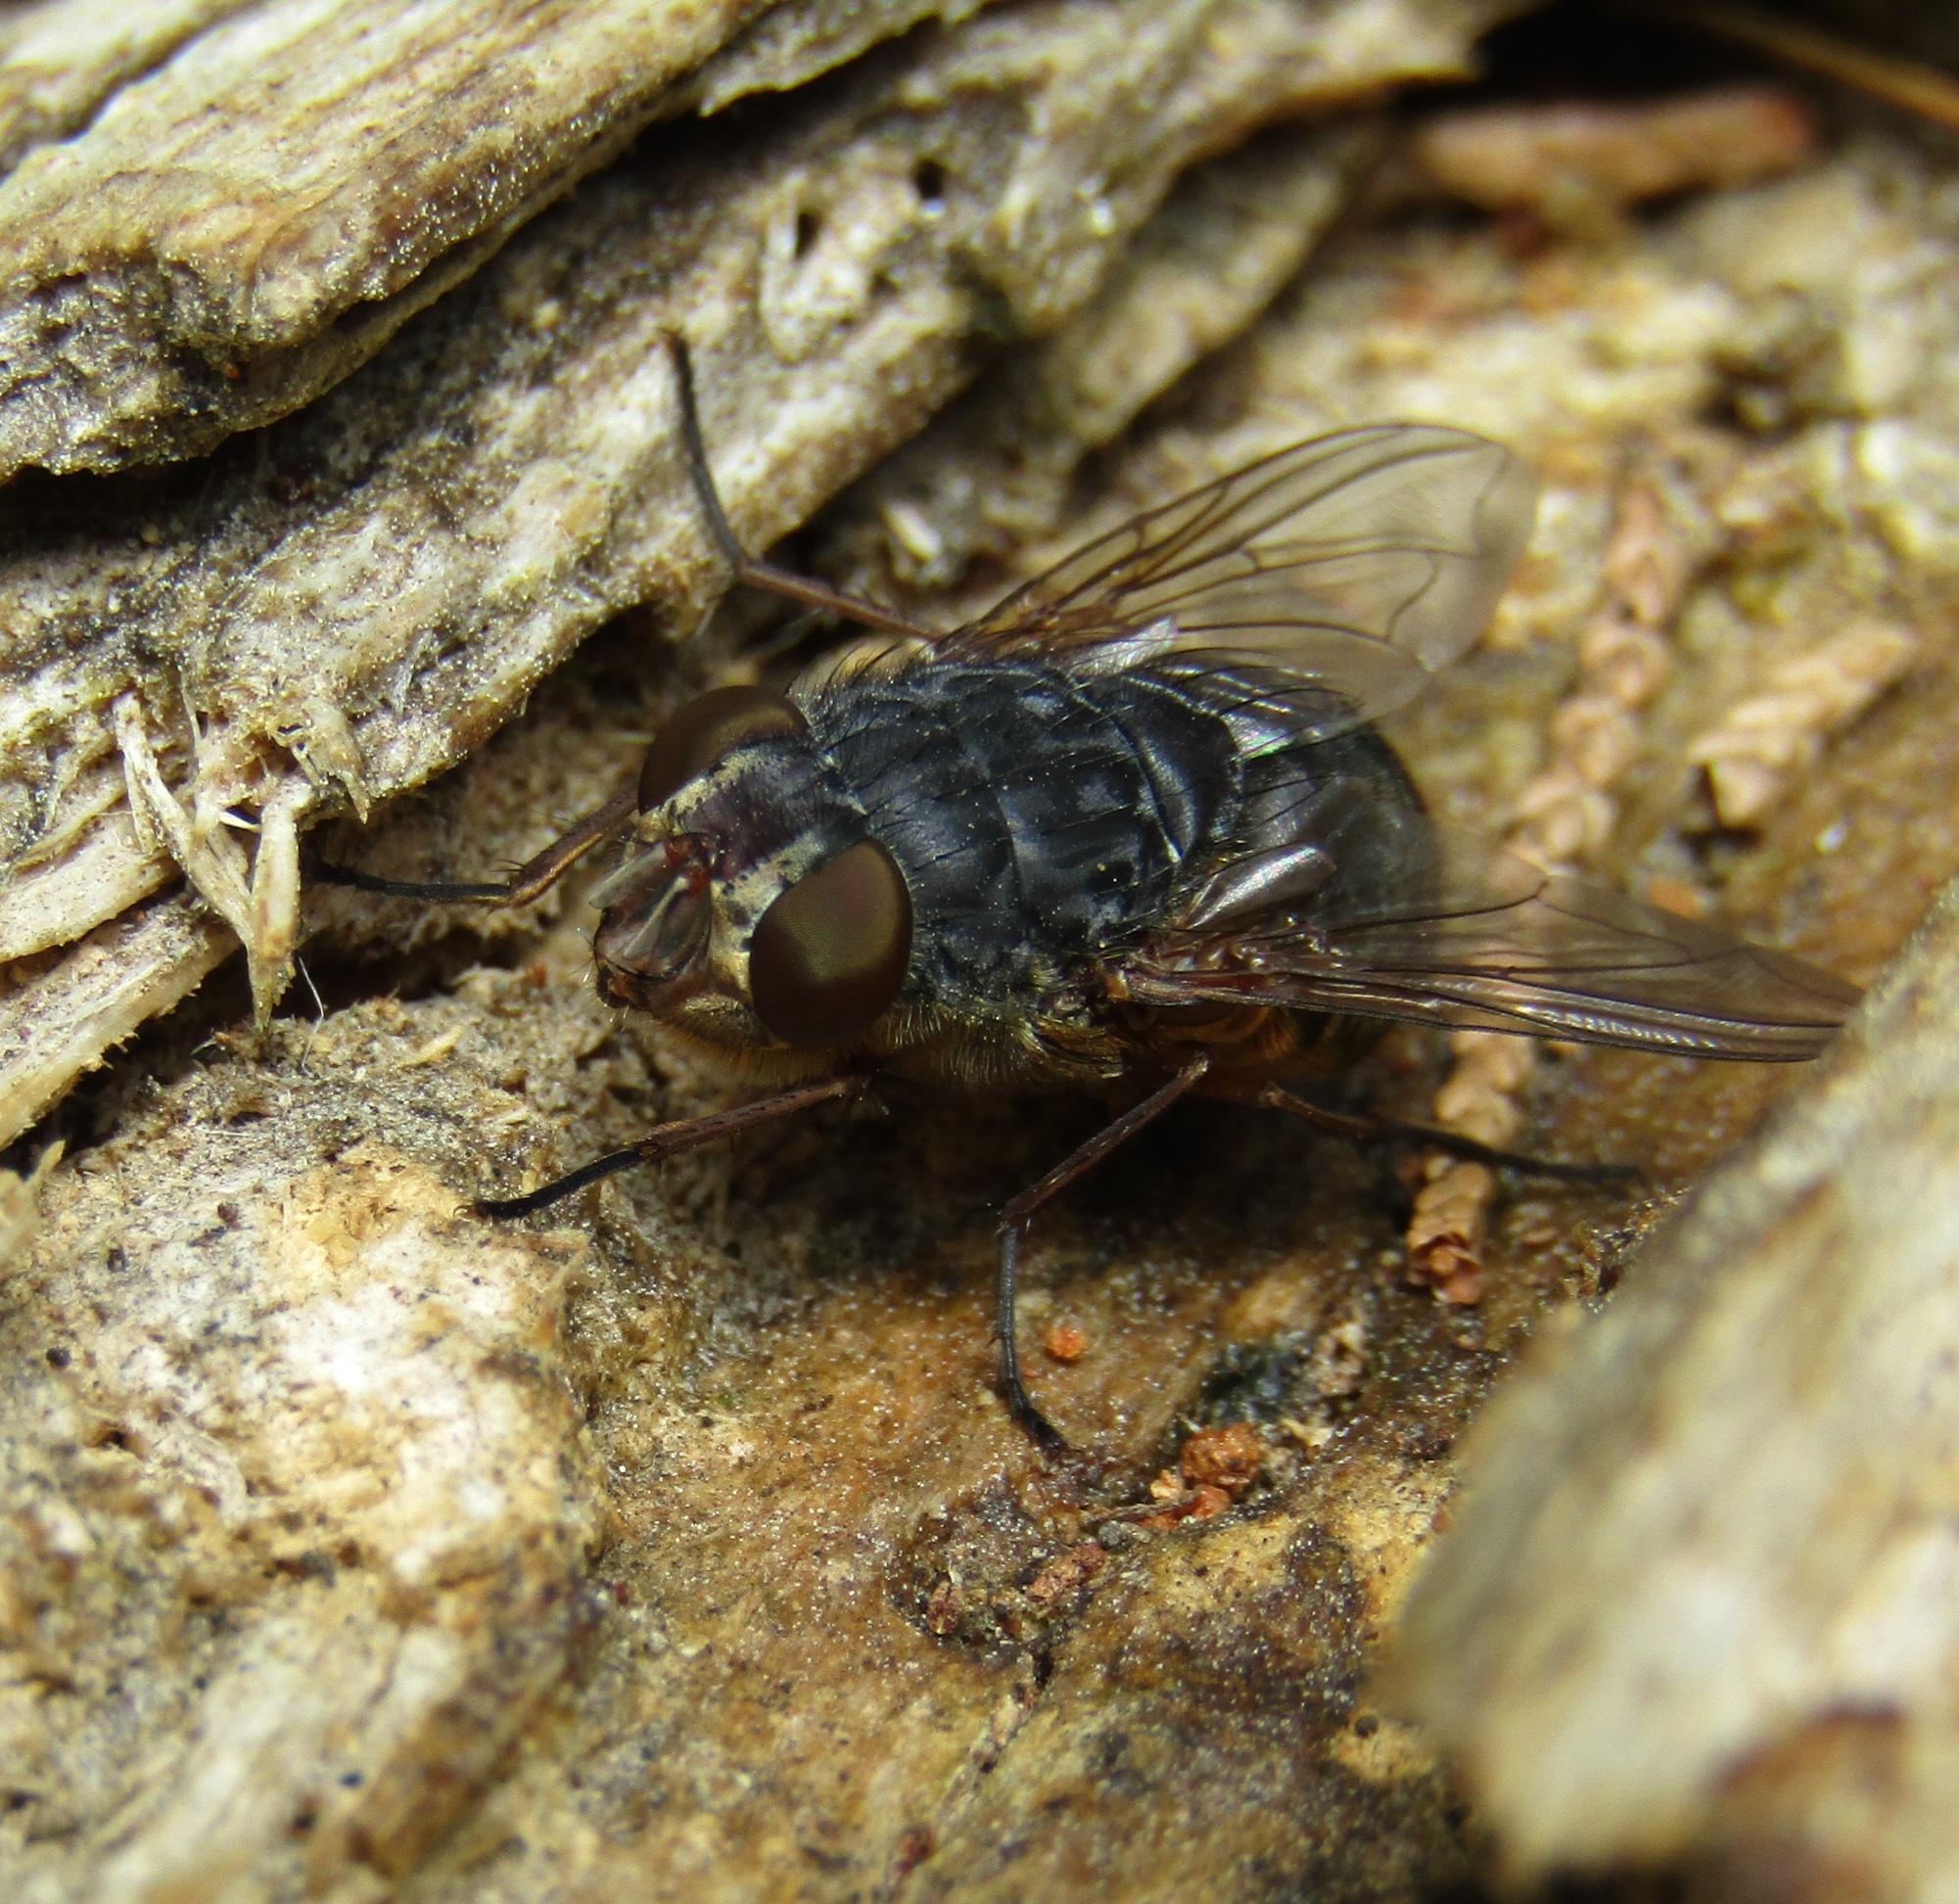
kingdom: Animalia
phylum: Arthropoda
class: Insecta
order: Diptera
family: Calliphoridae
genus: Calliphora
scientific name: Calliphora stygia
